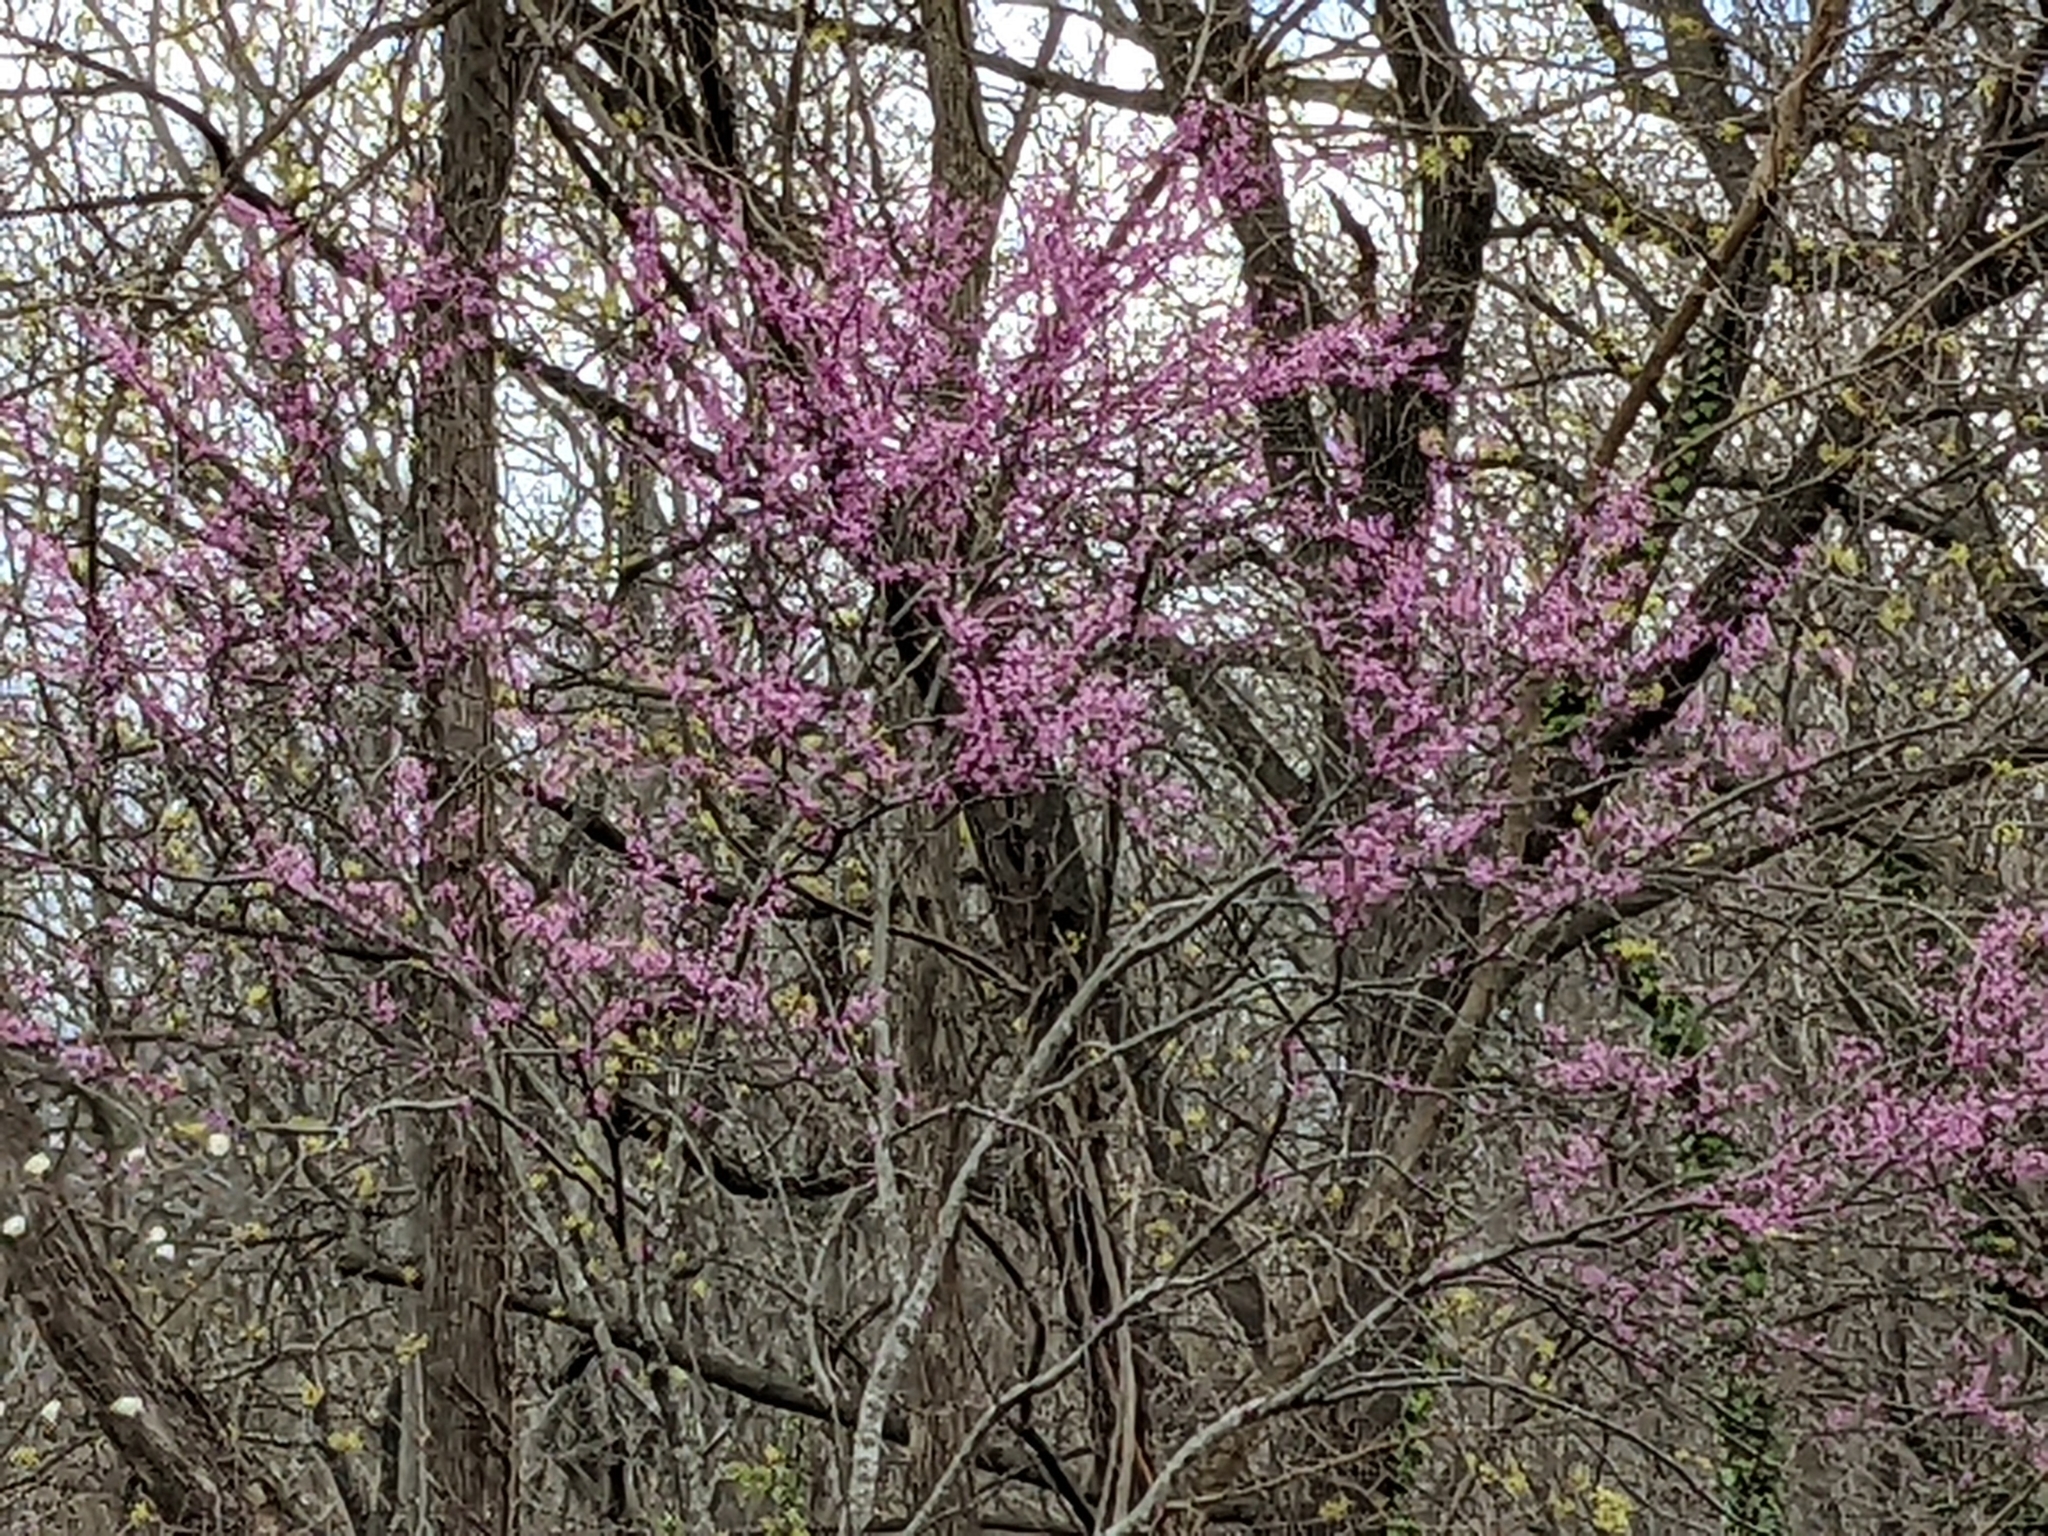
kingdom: Plantae
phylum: Tracheophyta
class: Magnoliopsida
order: Fabales
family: Fabaceae
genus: Cercis
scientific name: Cercis canadensis
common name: Eastern redbud
